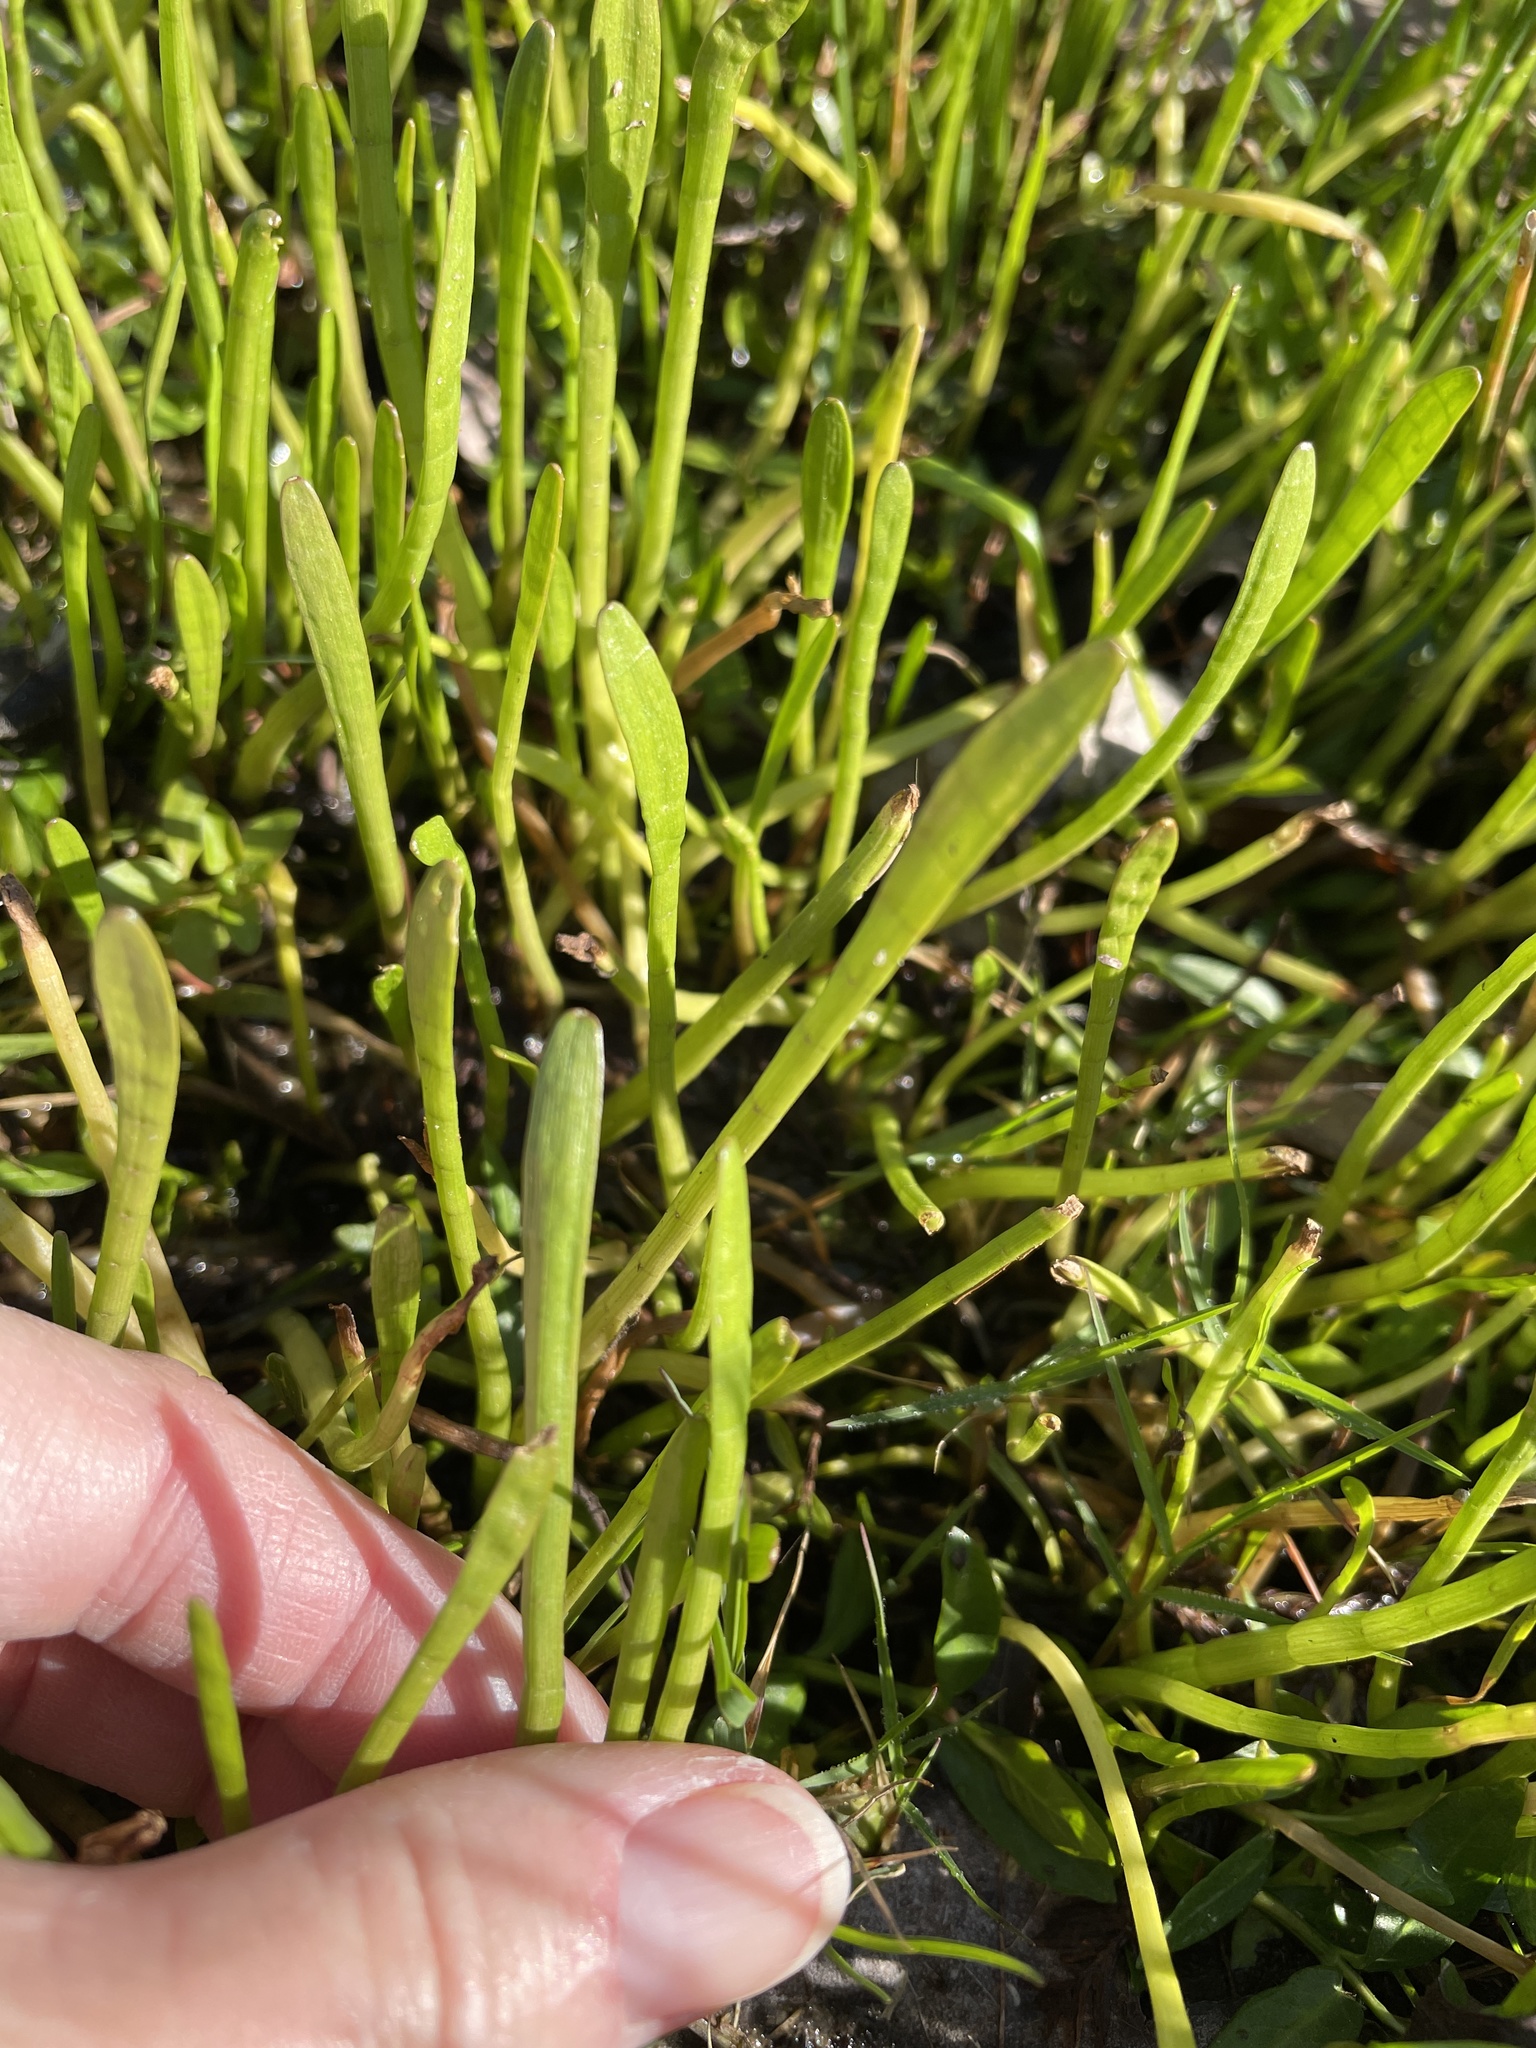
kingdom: Plantae
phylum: Tracheophyta
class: Magnoliopsida
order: Apiales
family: Apiaceae
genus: Lilaeopsis
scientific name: Lilaeopsis carolinensis
